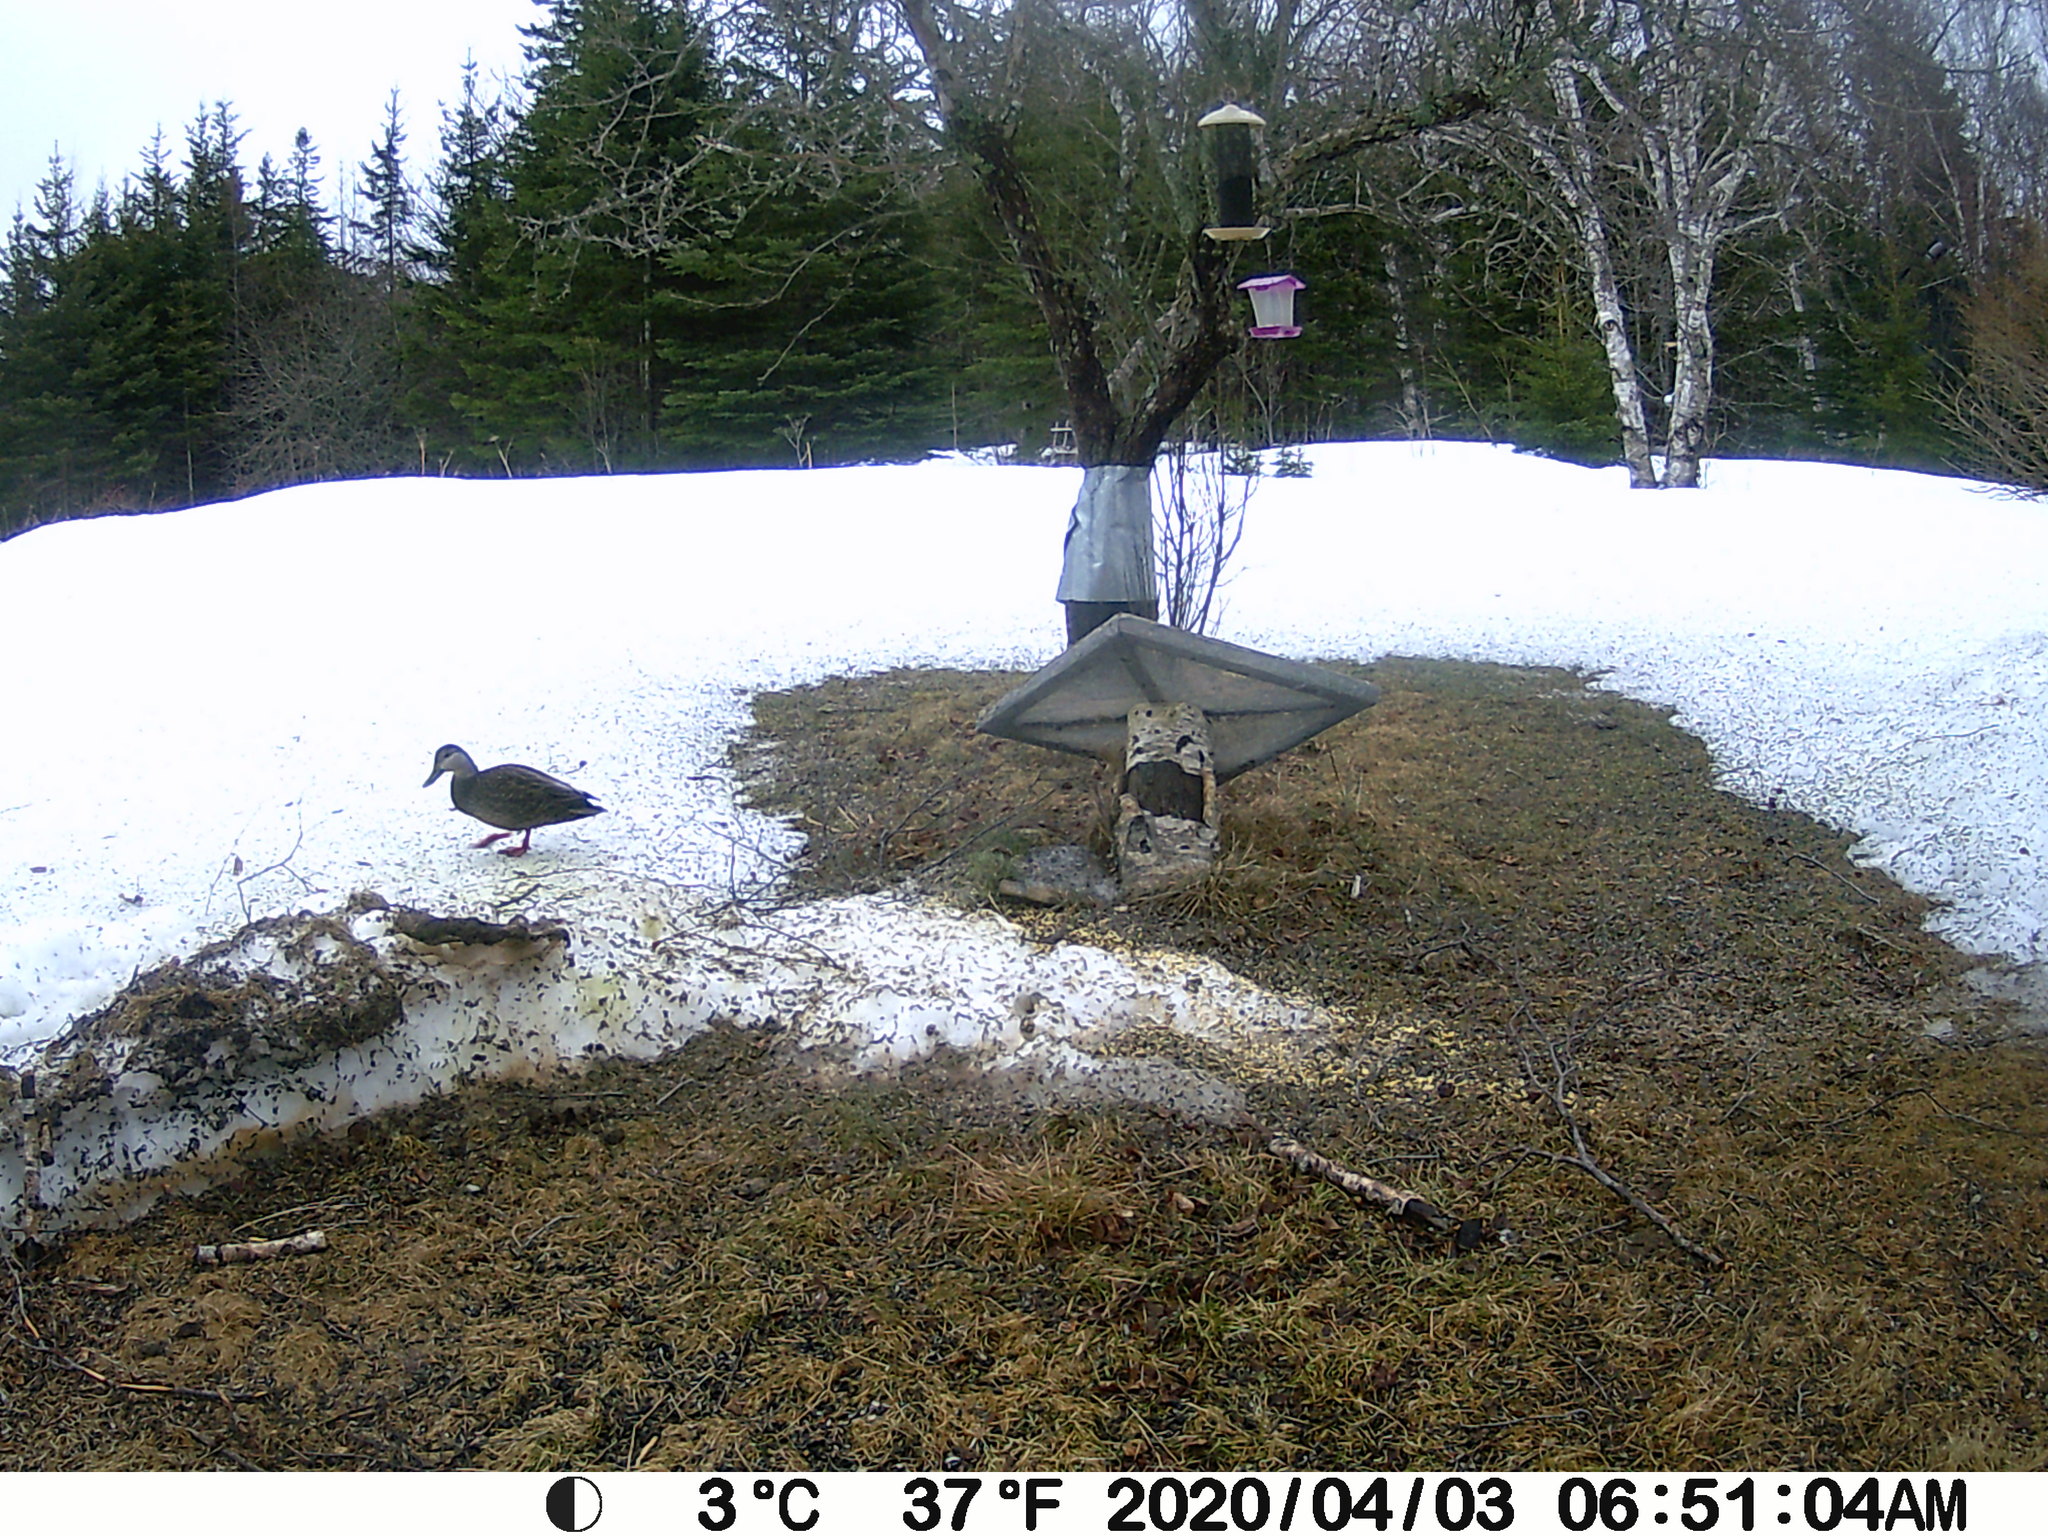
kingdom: Animalia
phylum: Chordata
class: Aves
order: Anseriformes
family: Anatidae
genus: Anas
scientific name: Anas rubripes
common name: American black duck
